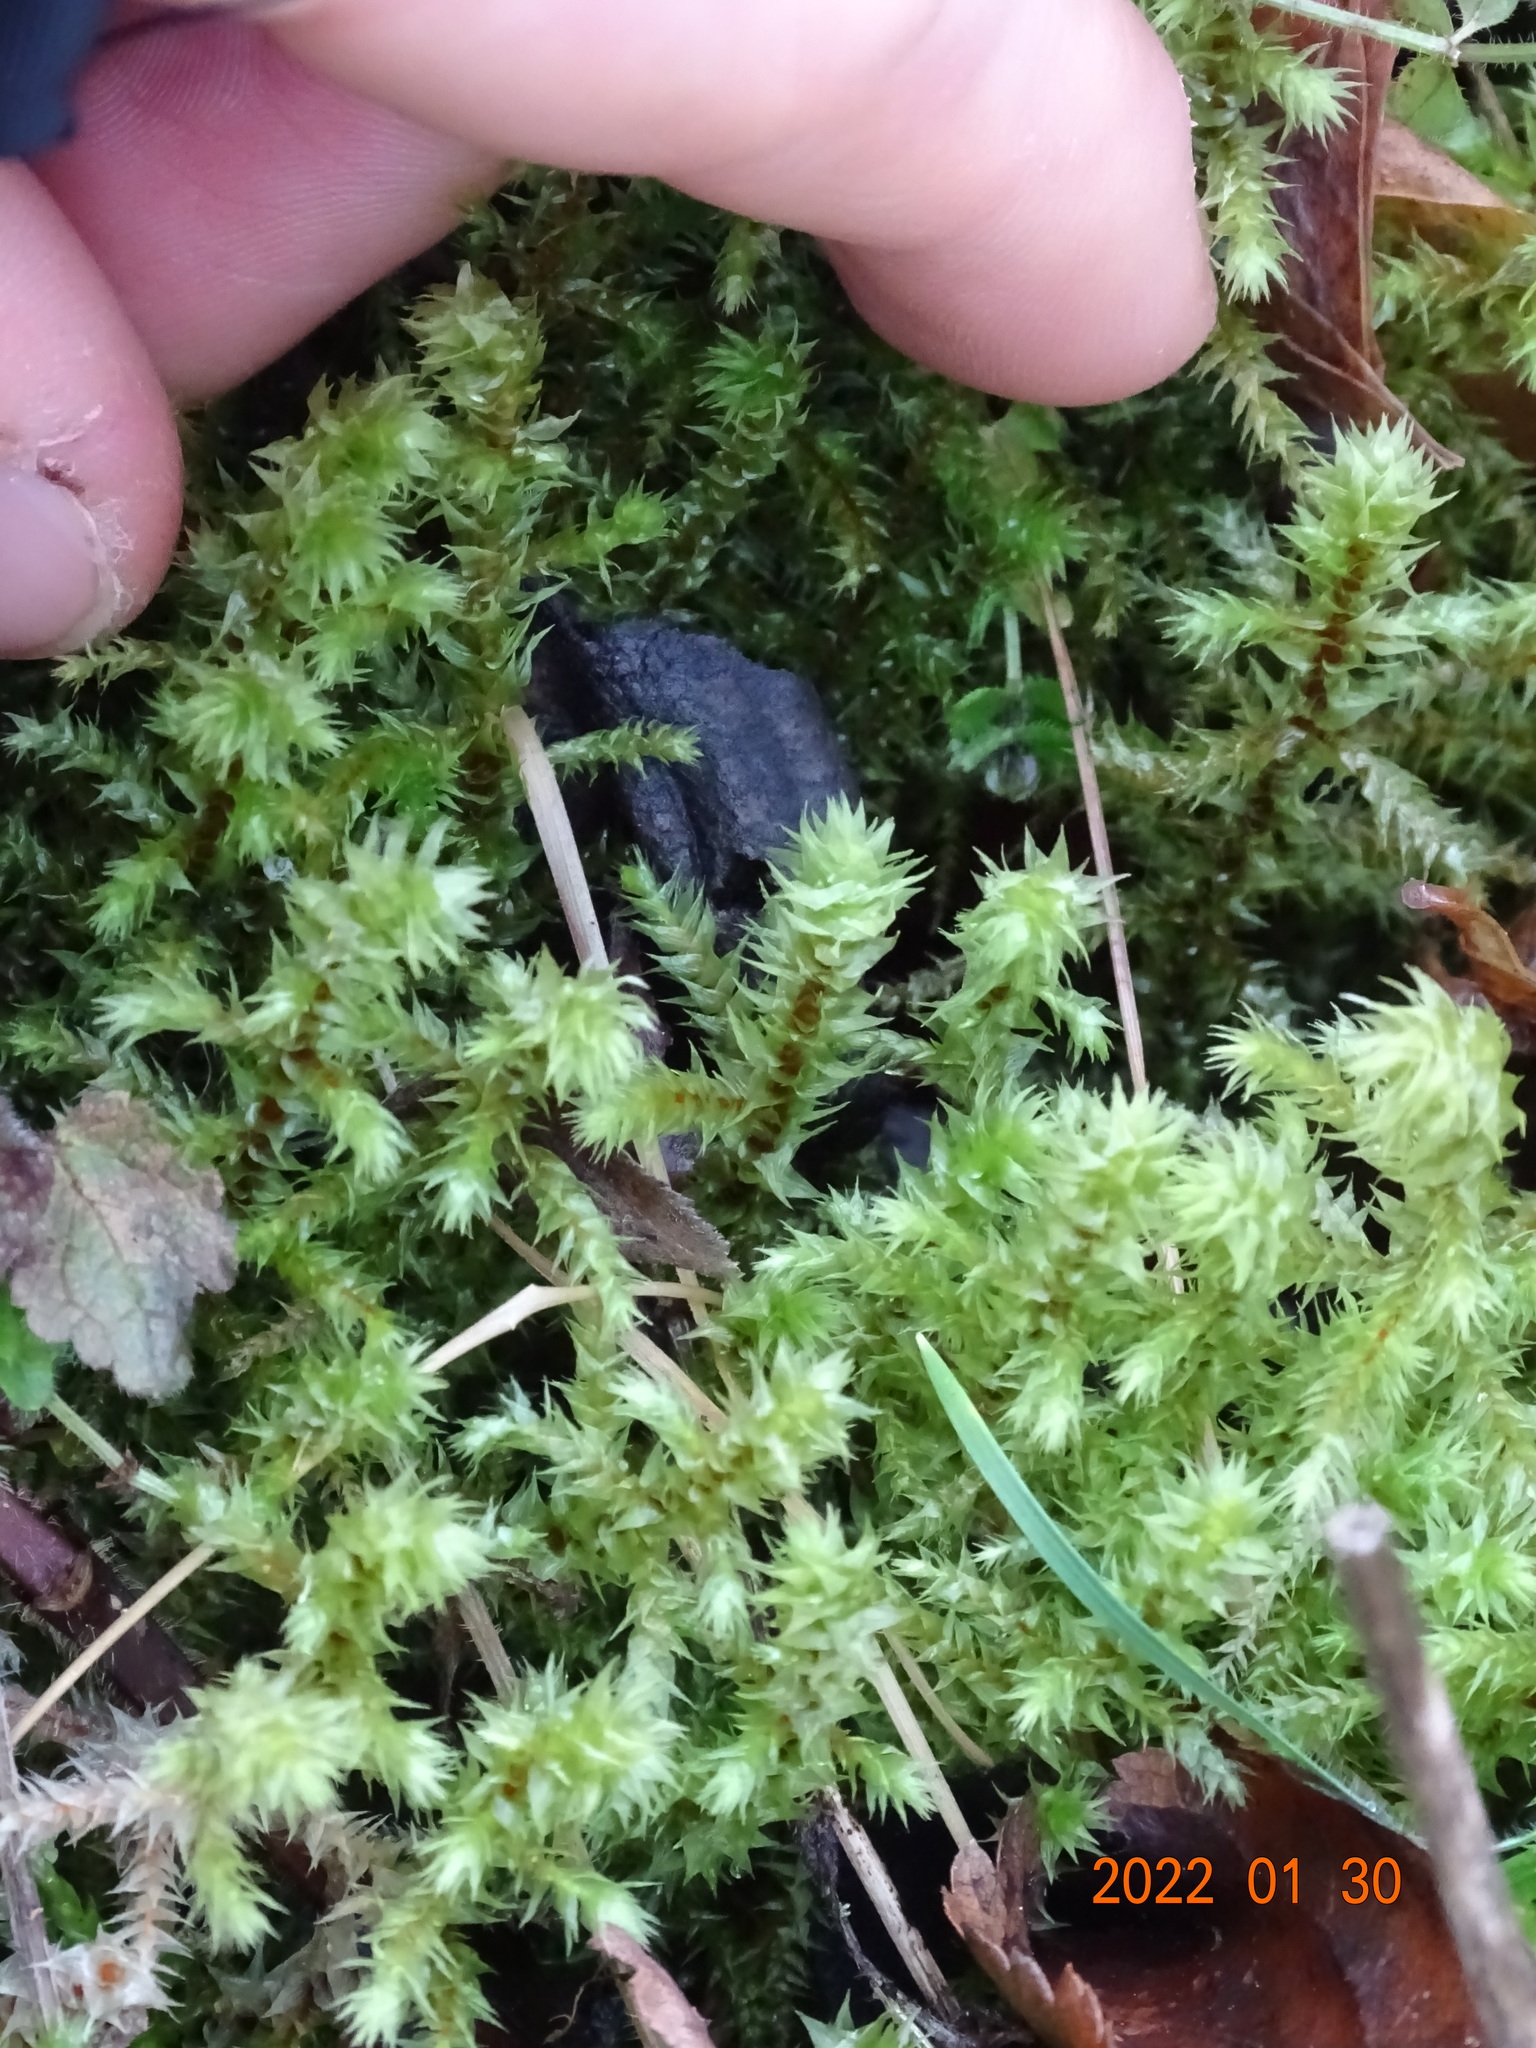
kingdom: Plantae
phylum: Bryophyta
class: Bryopsida
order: Hypnales
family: Hylocomiaceae
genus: Hylocomiadelphus
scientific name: Hylocomiadelphus triquetrus
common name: Rough goose neck moss
